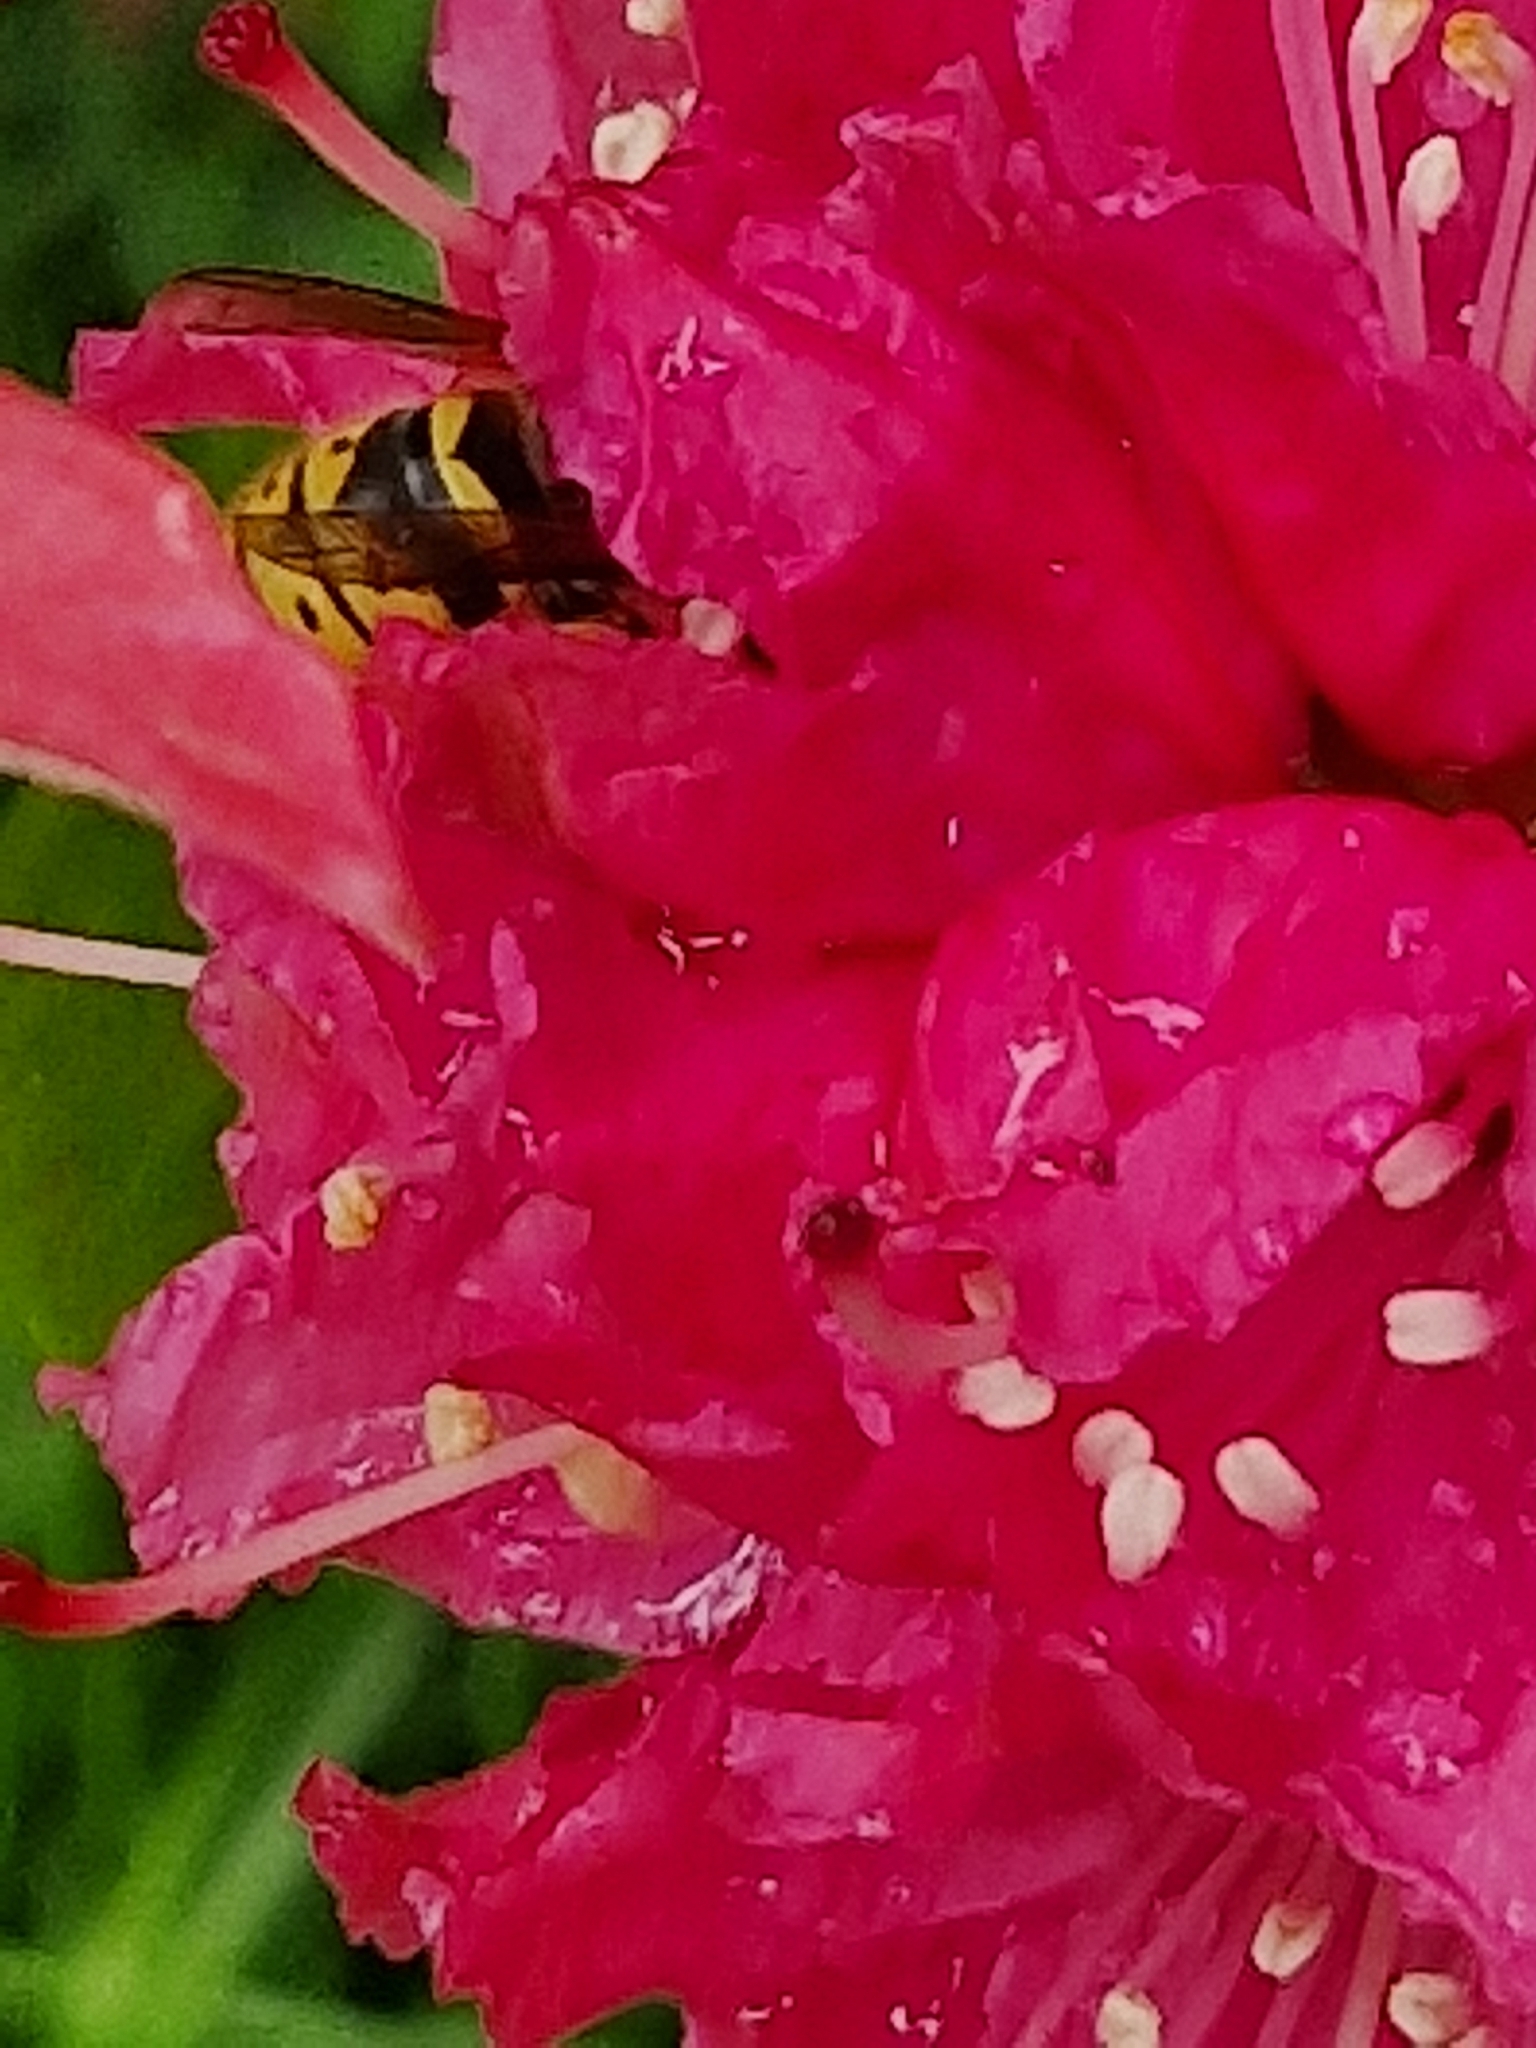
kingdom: Animalia
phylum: Arthropoda
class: Insecta
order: Hymenoptera
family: Vespidae
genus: Vespula
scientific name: Vespula vulgaris
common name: Common wasp
